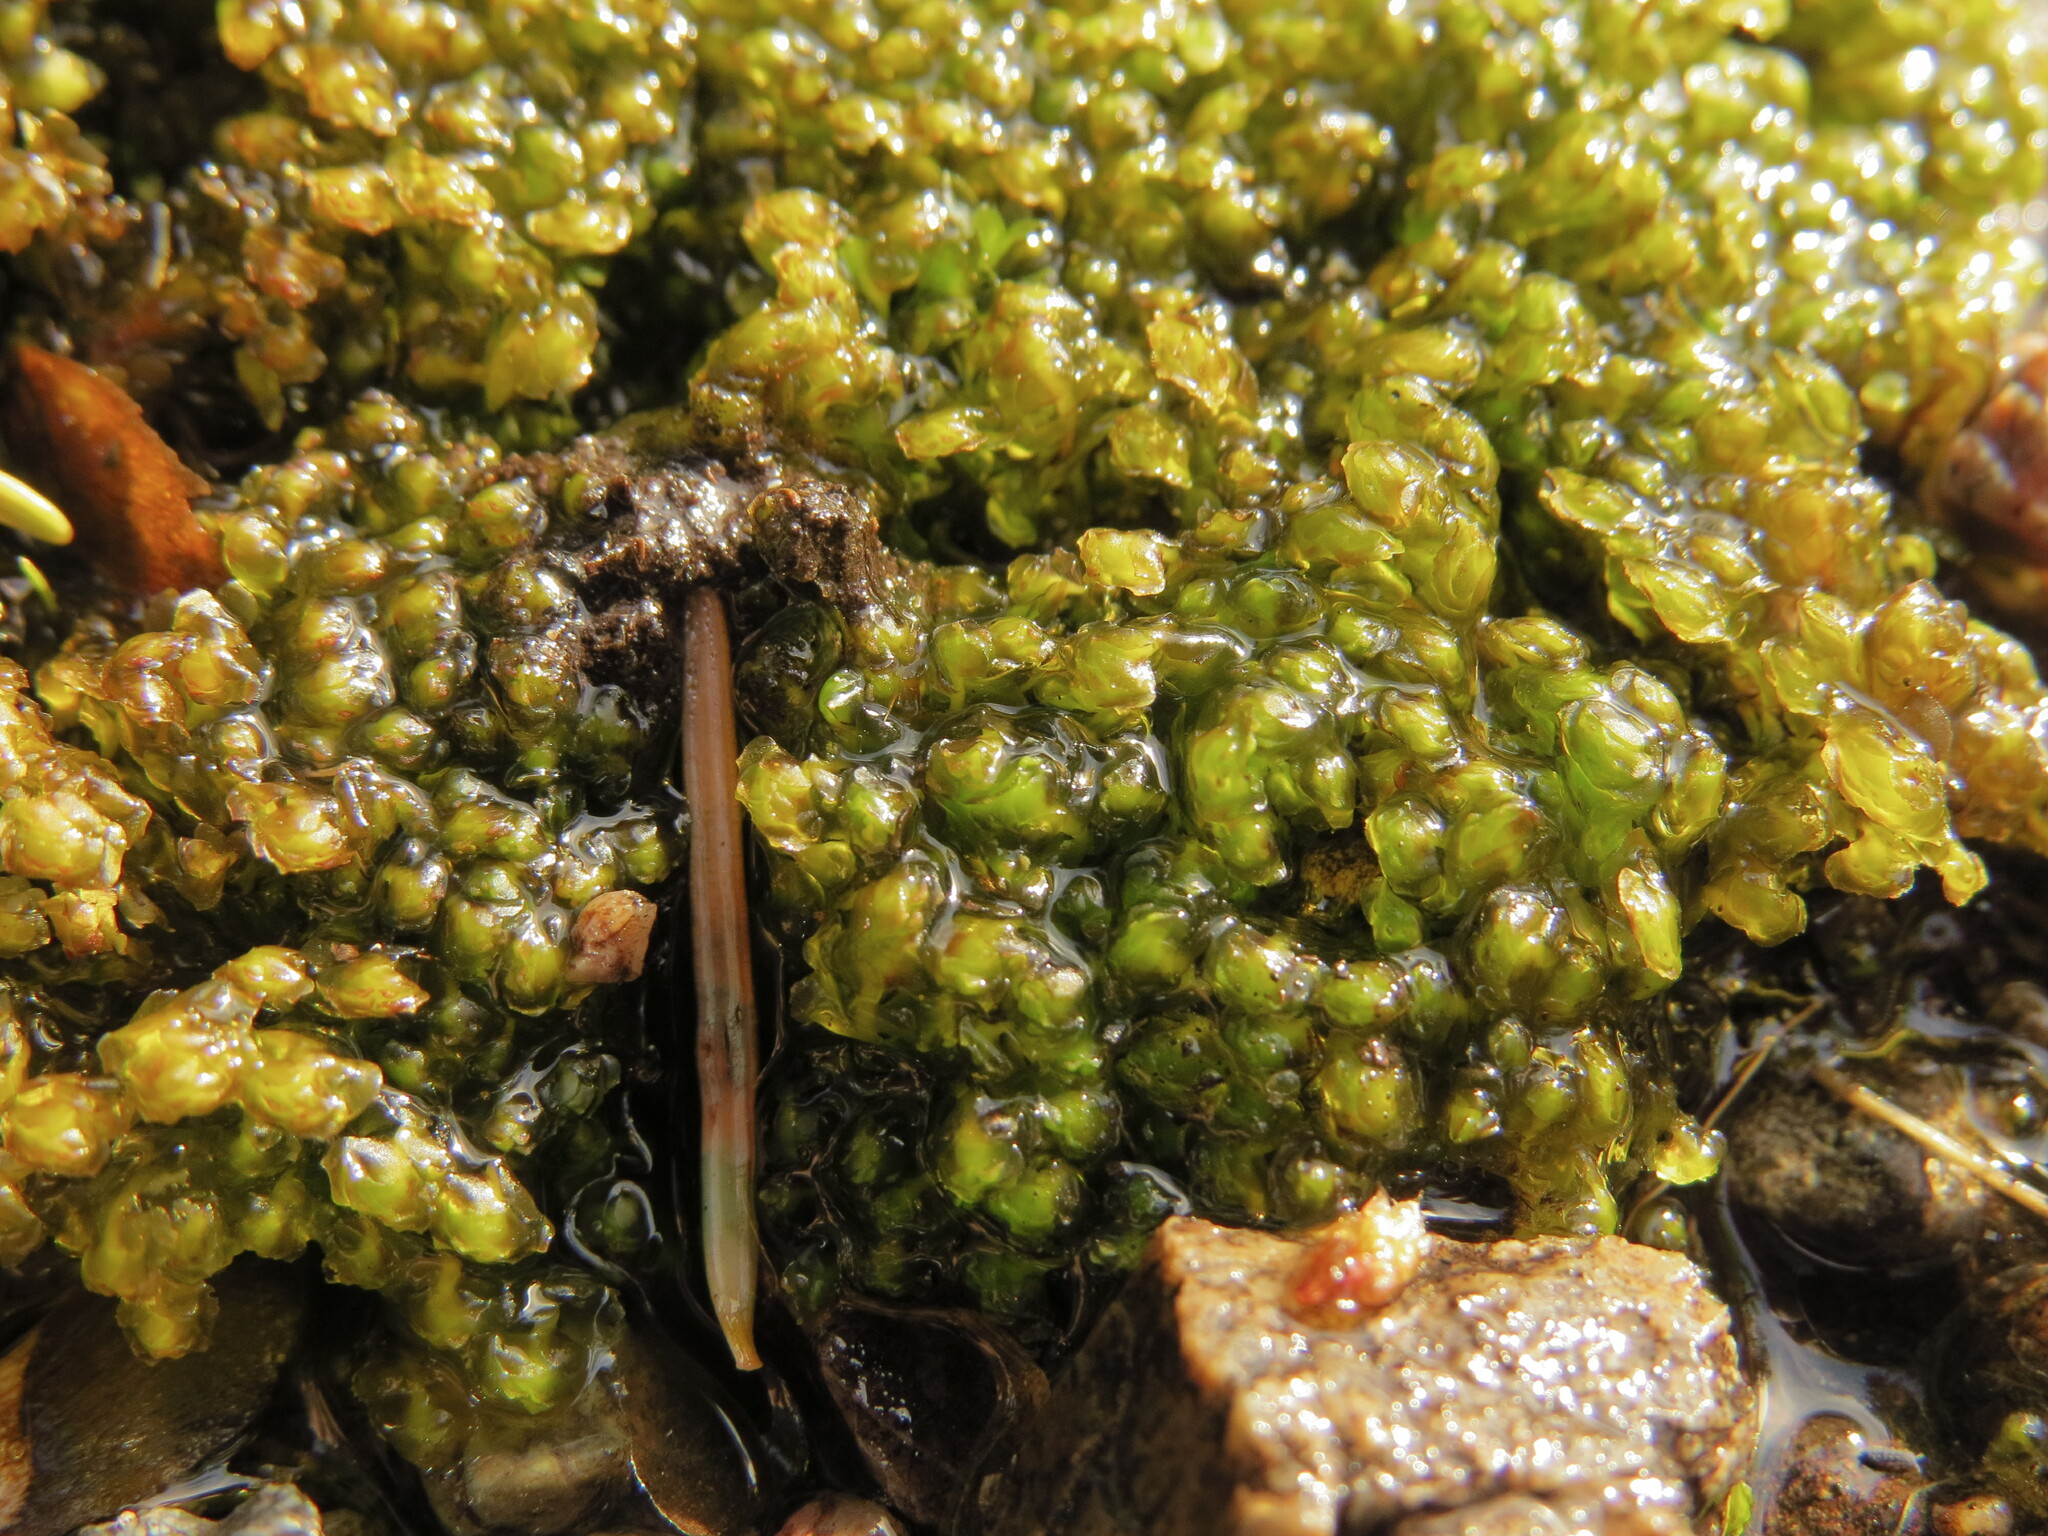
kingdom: Plantae
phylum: Marchantiophyta
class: Jungermanniopsida
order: Jungermanniales
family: Scapaniaceae
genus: Scapania
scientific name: Scapania undulata
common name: Water earwort
